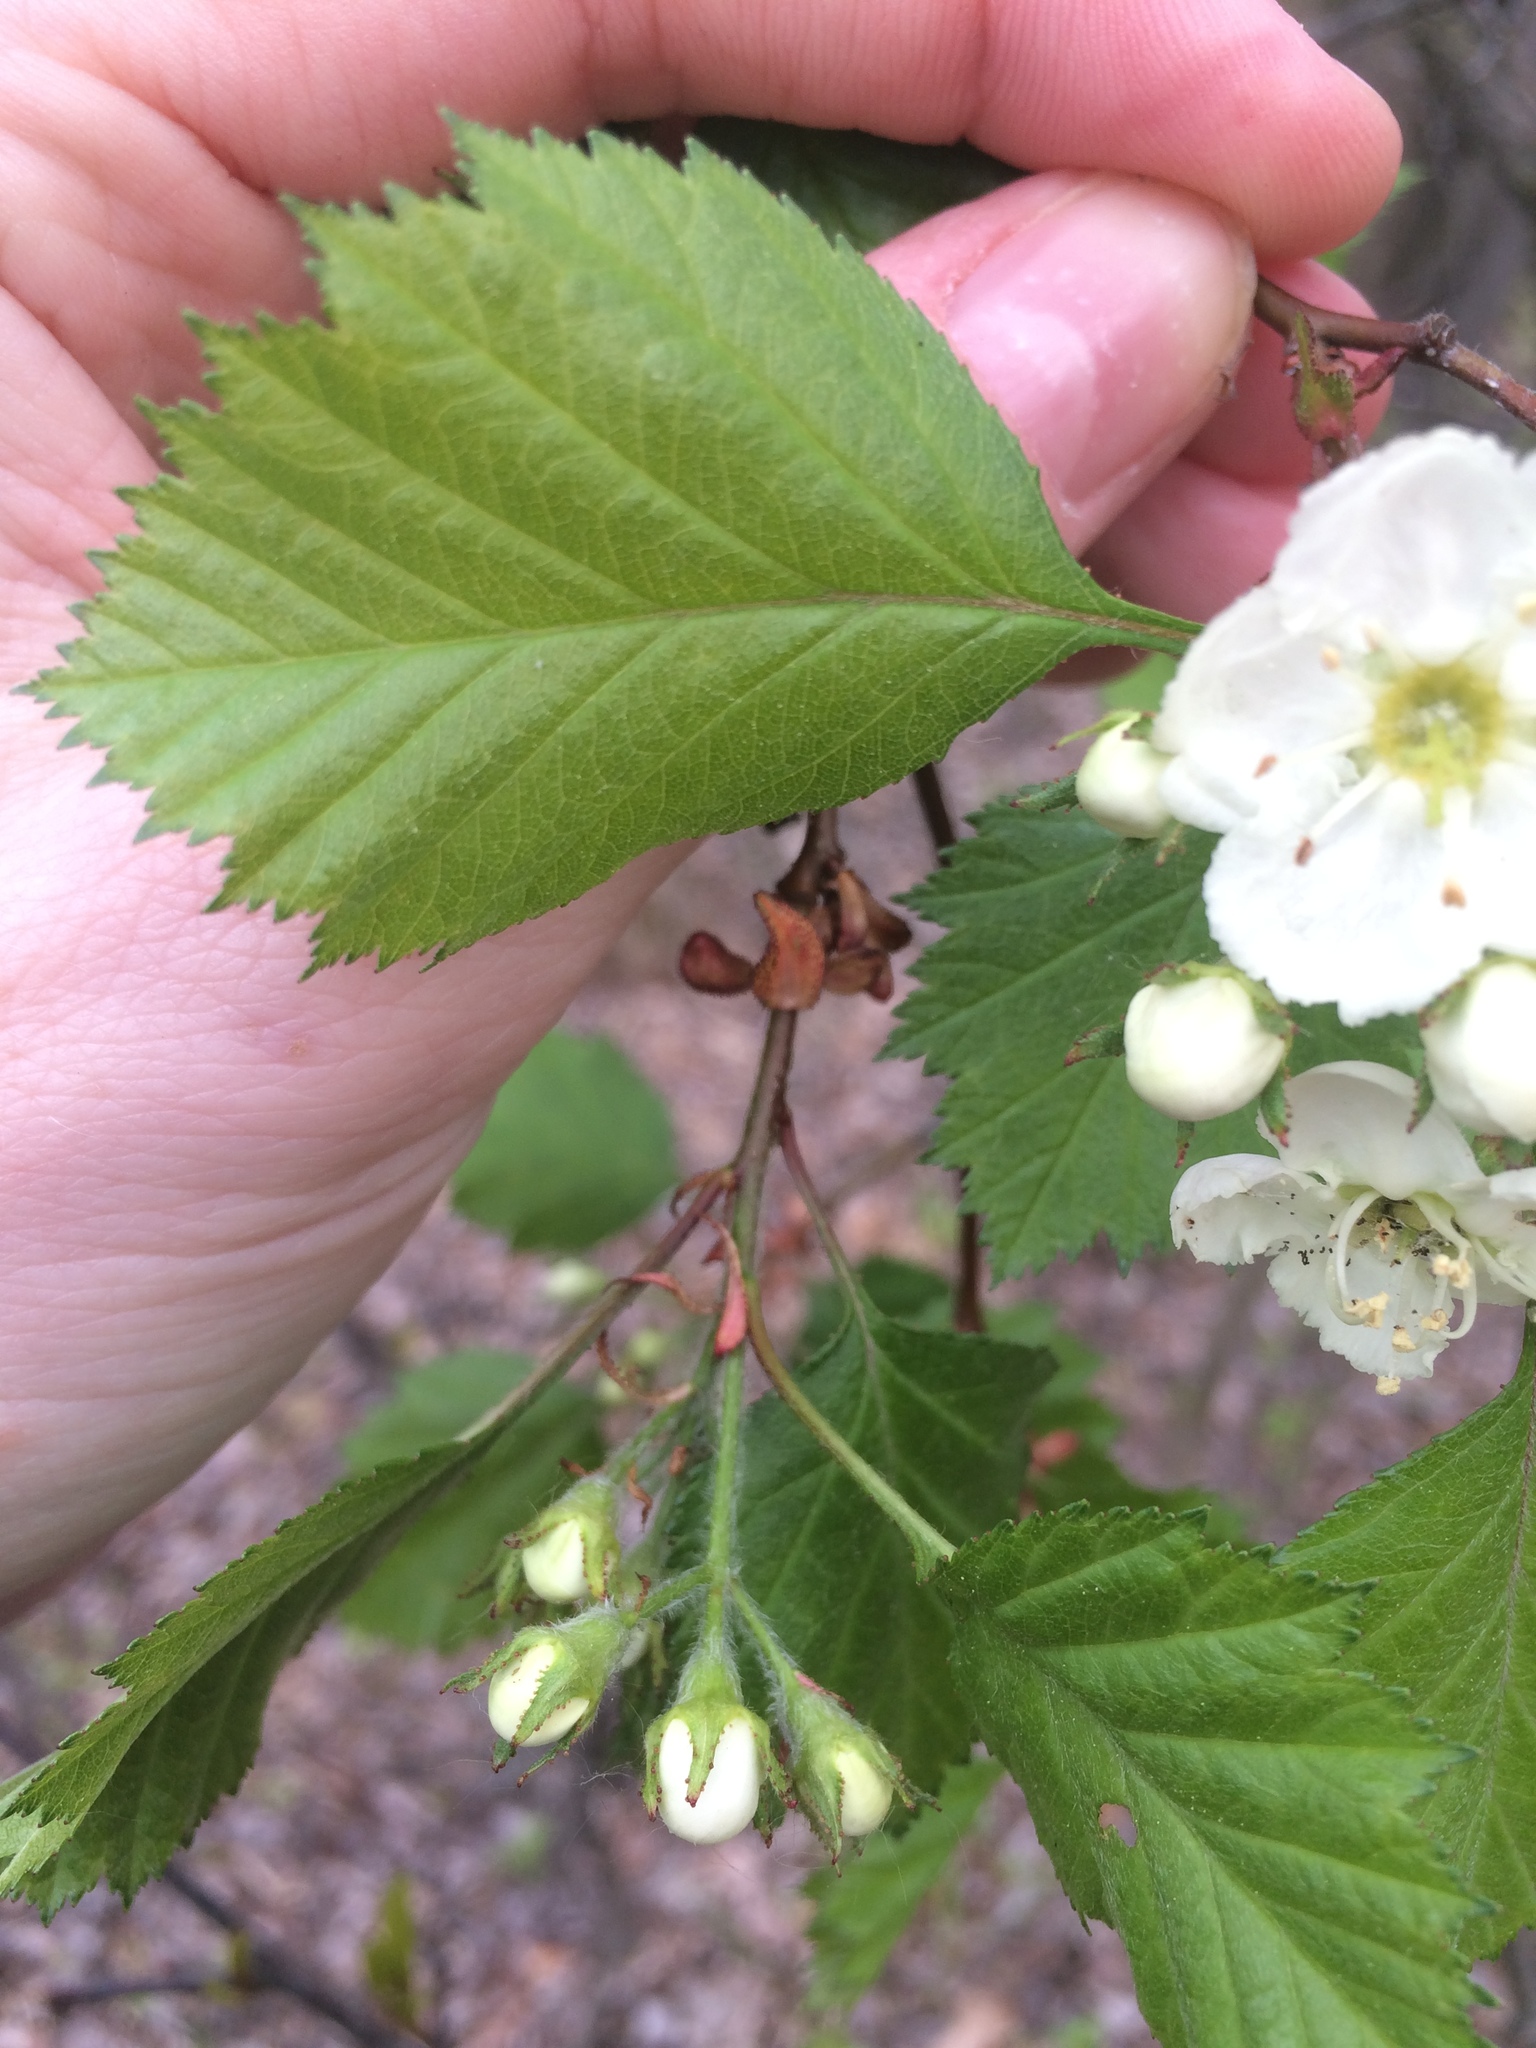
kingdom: Plantae
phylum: Tracheophyta
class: Magnoliopsida
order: Rosales
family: Rosaceae
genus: Crataegus
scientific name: Crataegus chrysocarpa
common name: Fire-berry hawthorn
